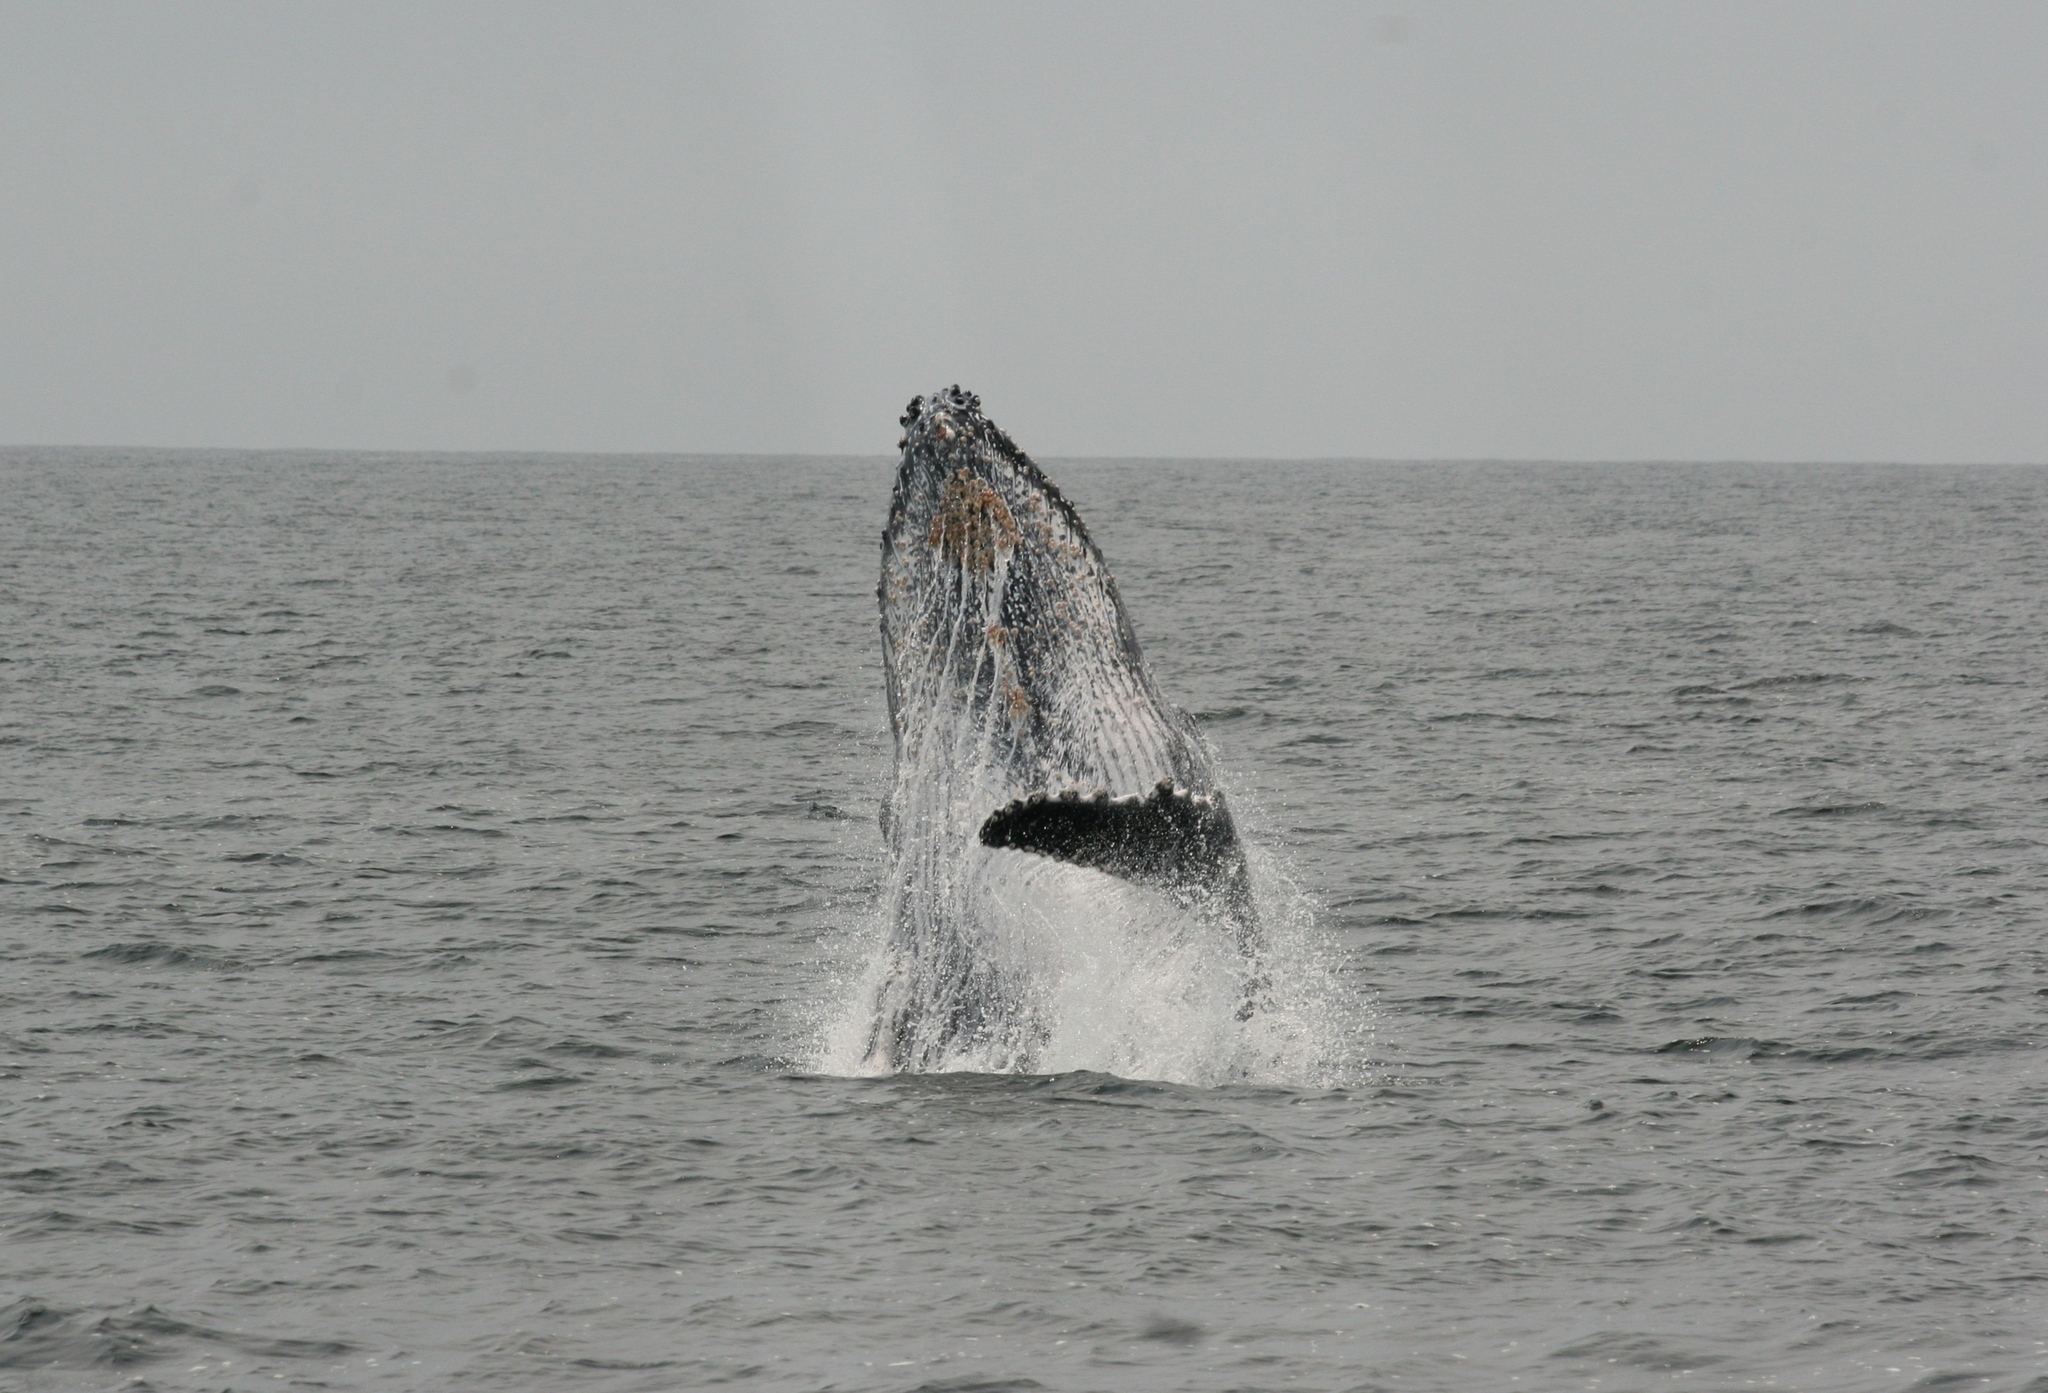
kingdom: Animalia
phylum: Chordata
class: Mammalia
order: Cetacea
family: Balaenopteridae
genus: Megaptera
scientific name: Megaptera novaeangliae
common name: Humpback whale
